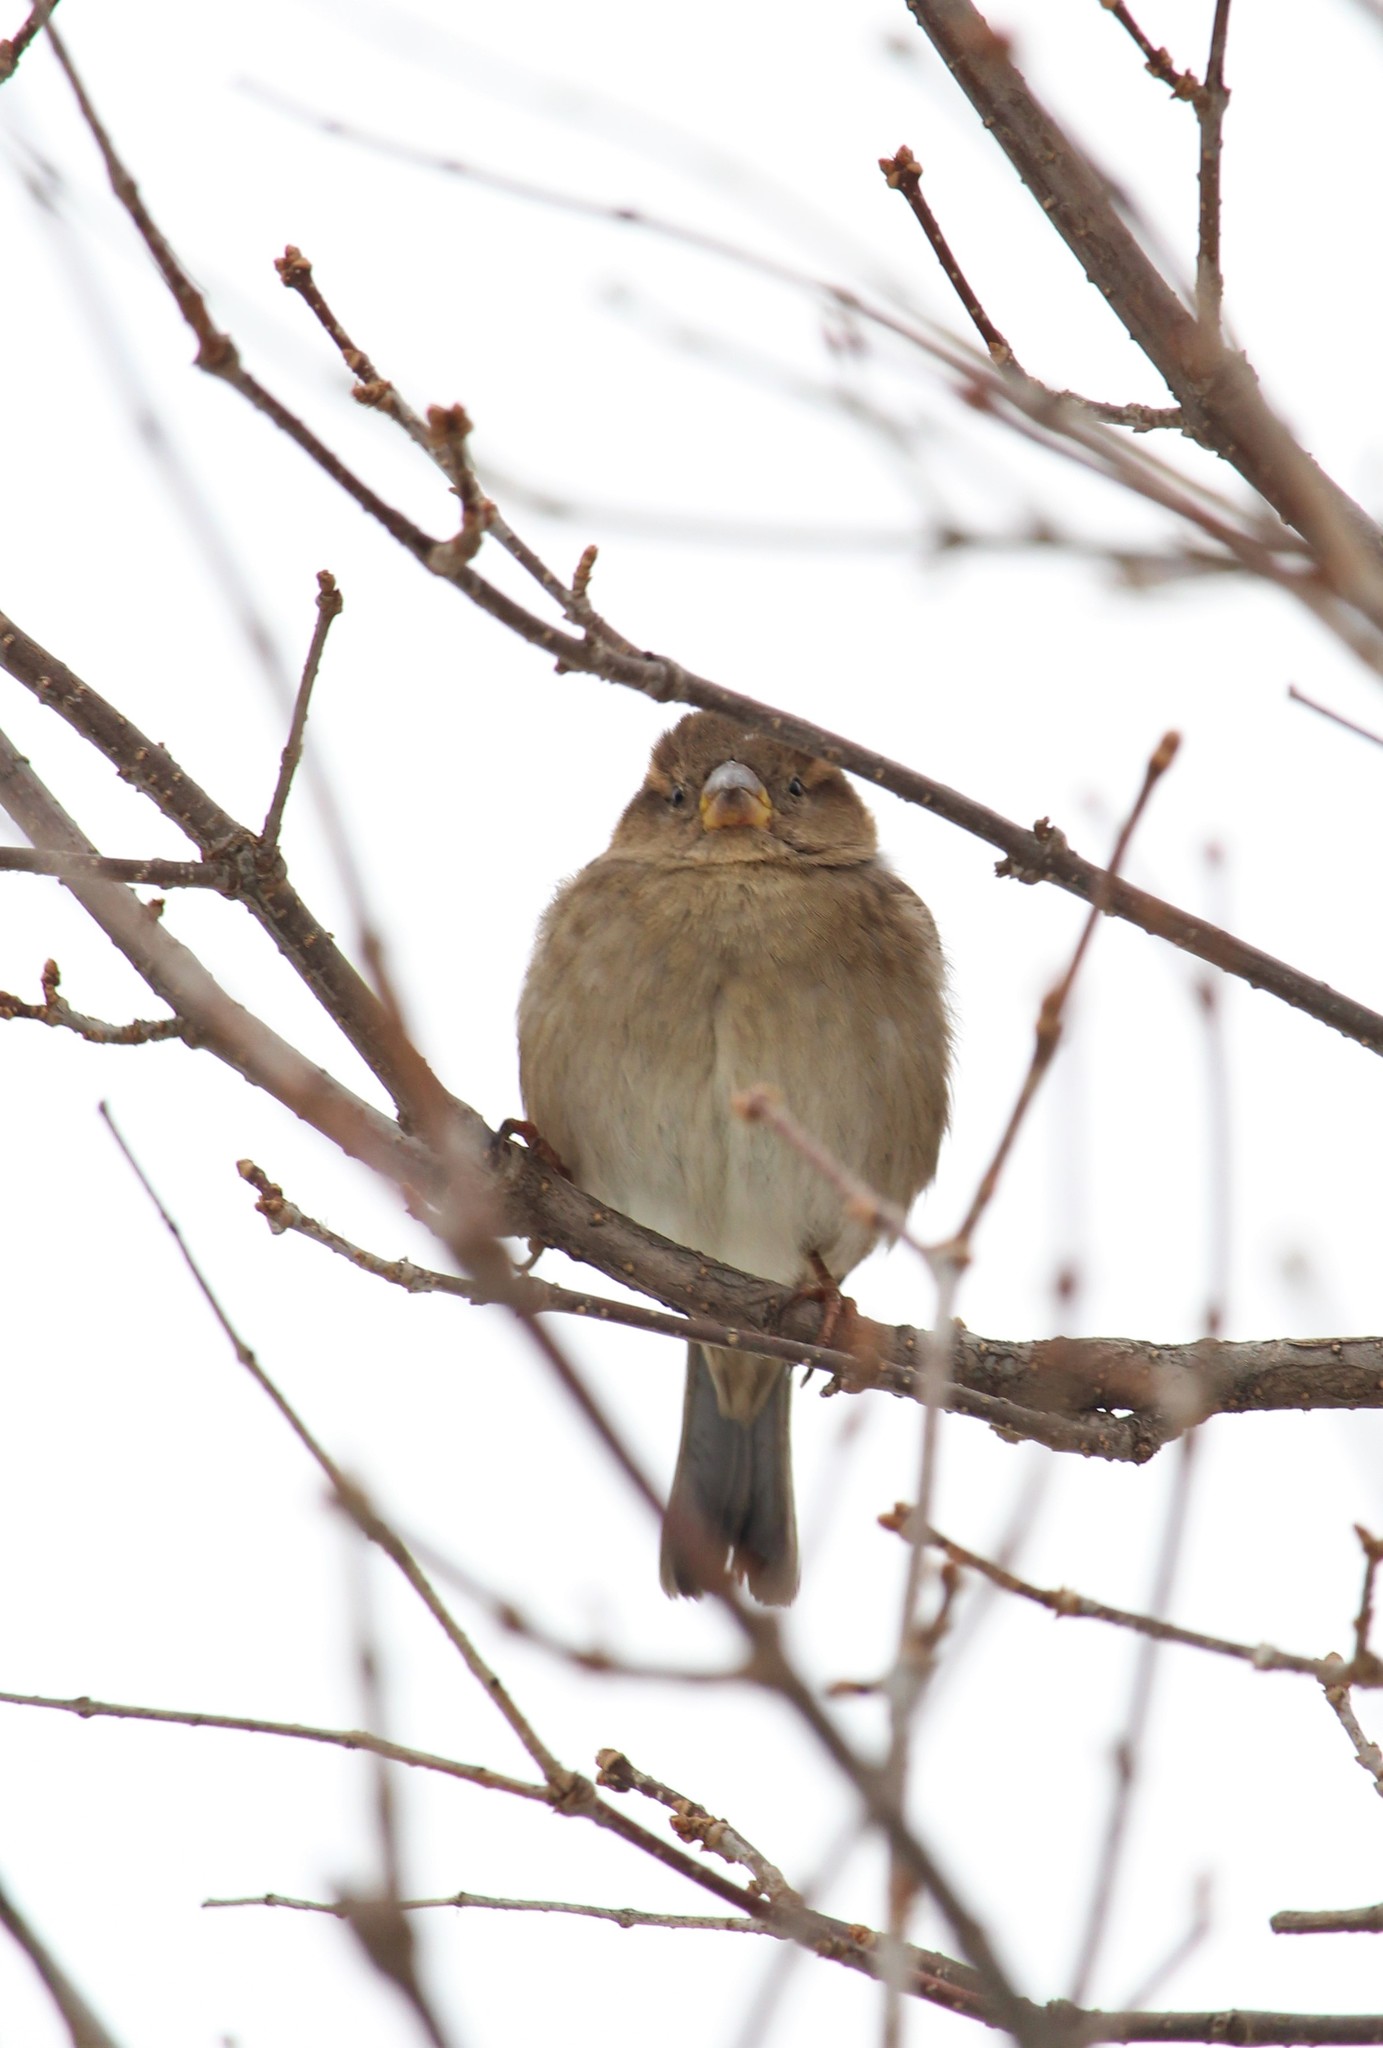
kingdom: Animalia
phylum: Chordata
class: Aves
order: Passeriformes
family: Passeridae
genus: Passer
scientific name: Passer domesticus
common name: House sparrow
